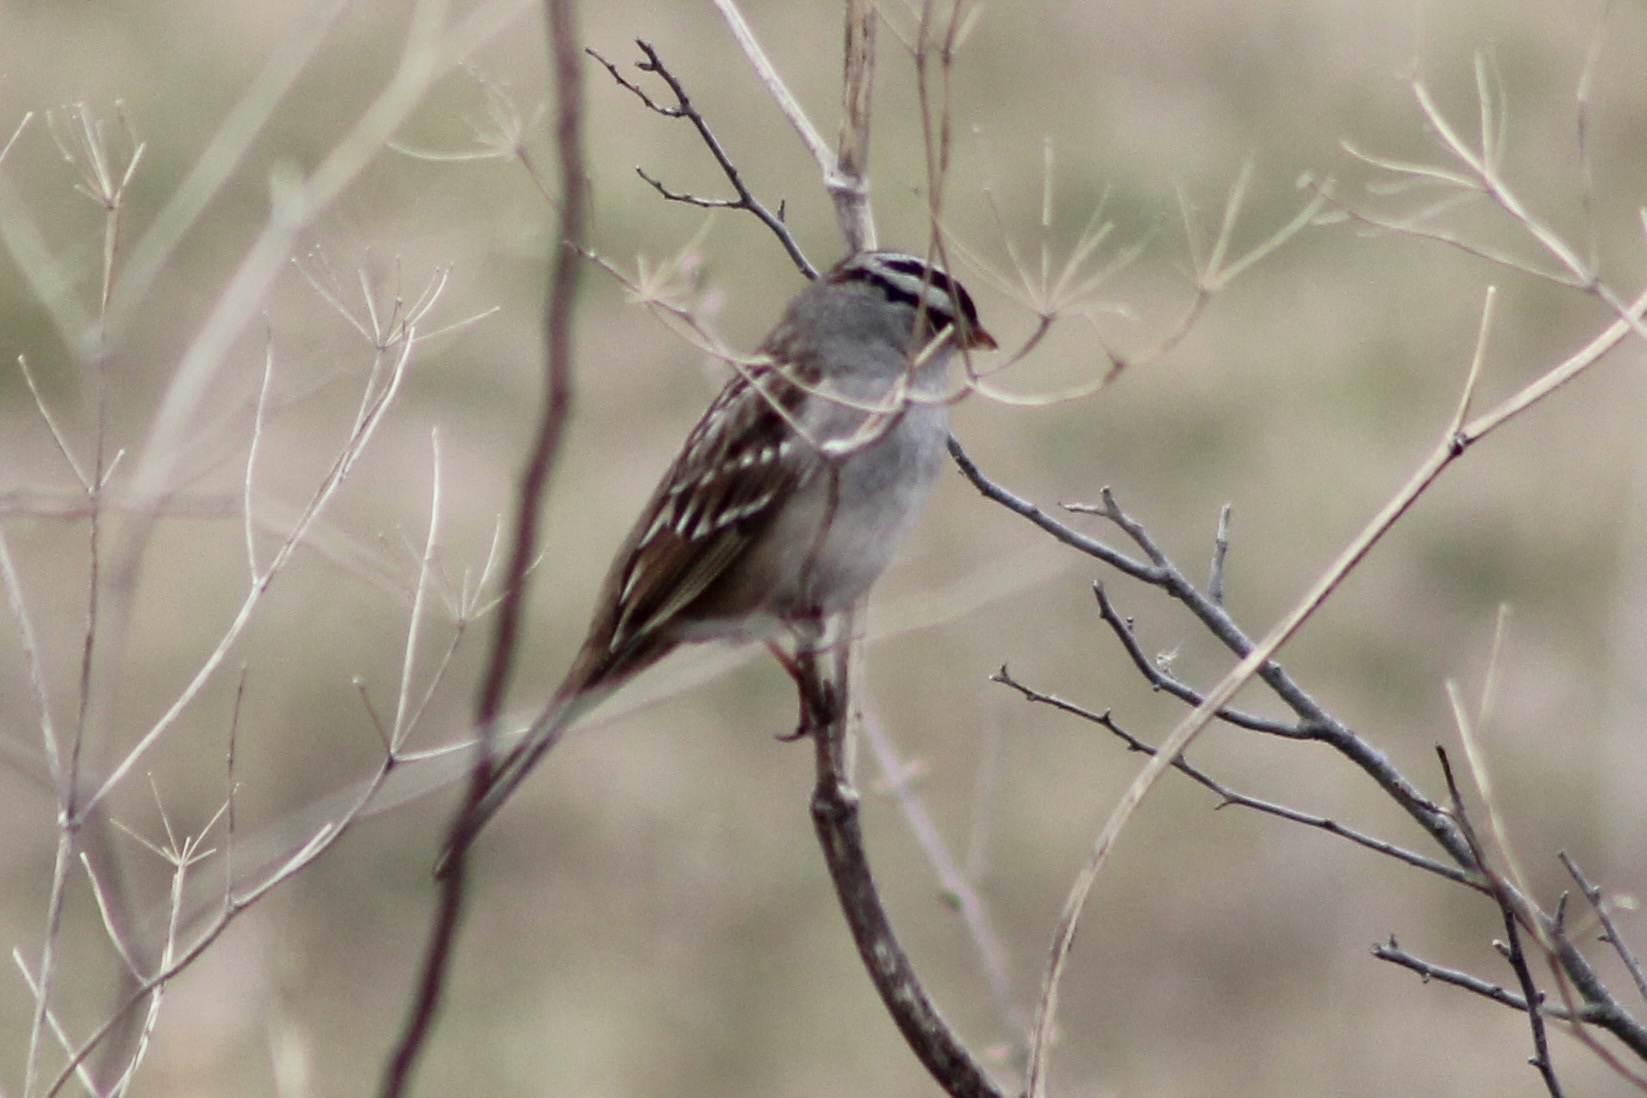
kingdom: Animalia
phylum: Chordata
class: Aves
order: Passeriformes
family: Passerellidae
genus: Zonotrichia
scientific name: Zonotrichia leucophrys
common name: White-crowned sparrow
